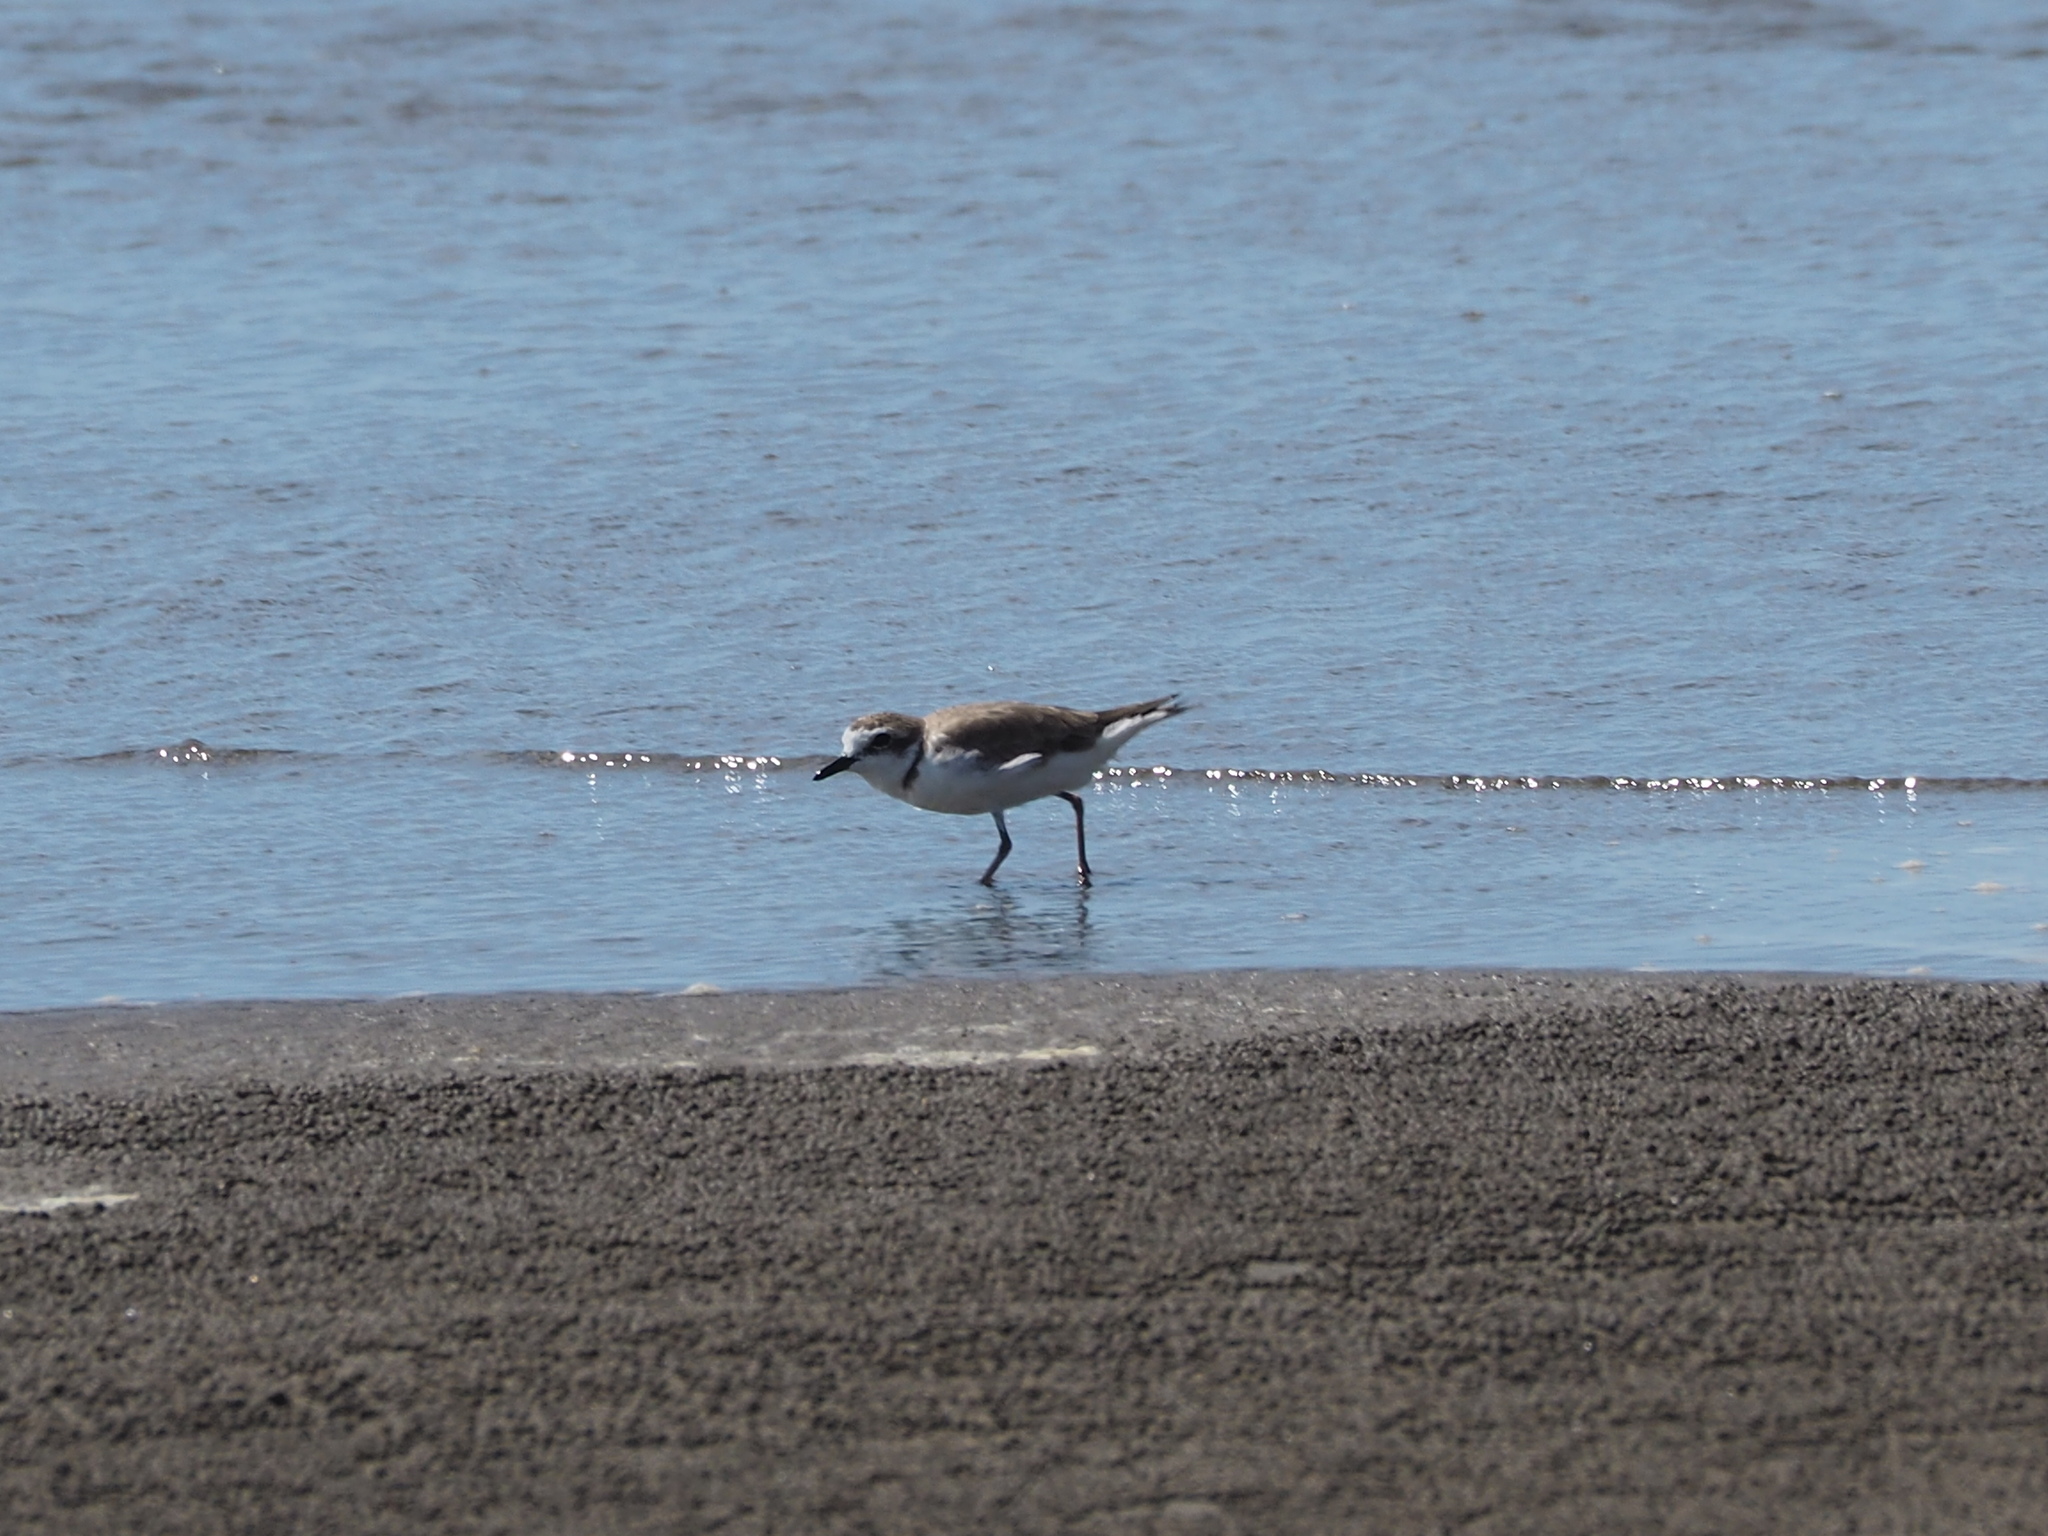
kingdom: Animalia
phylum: Chordata
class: Aves
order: Charadriiformes
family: Charadriidae
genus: Charadrius
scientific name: Charadrius alexandrinus
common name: Kentish plover
